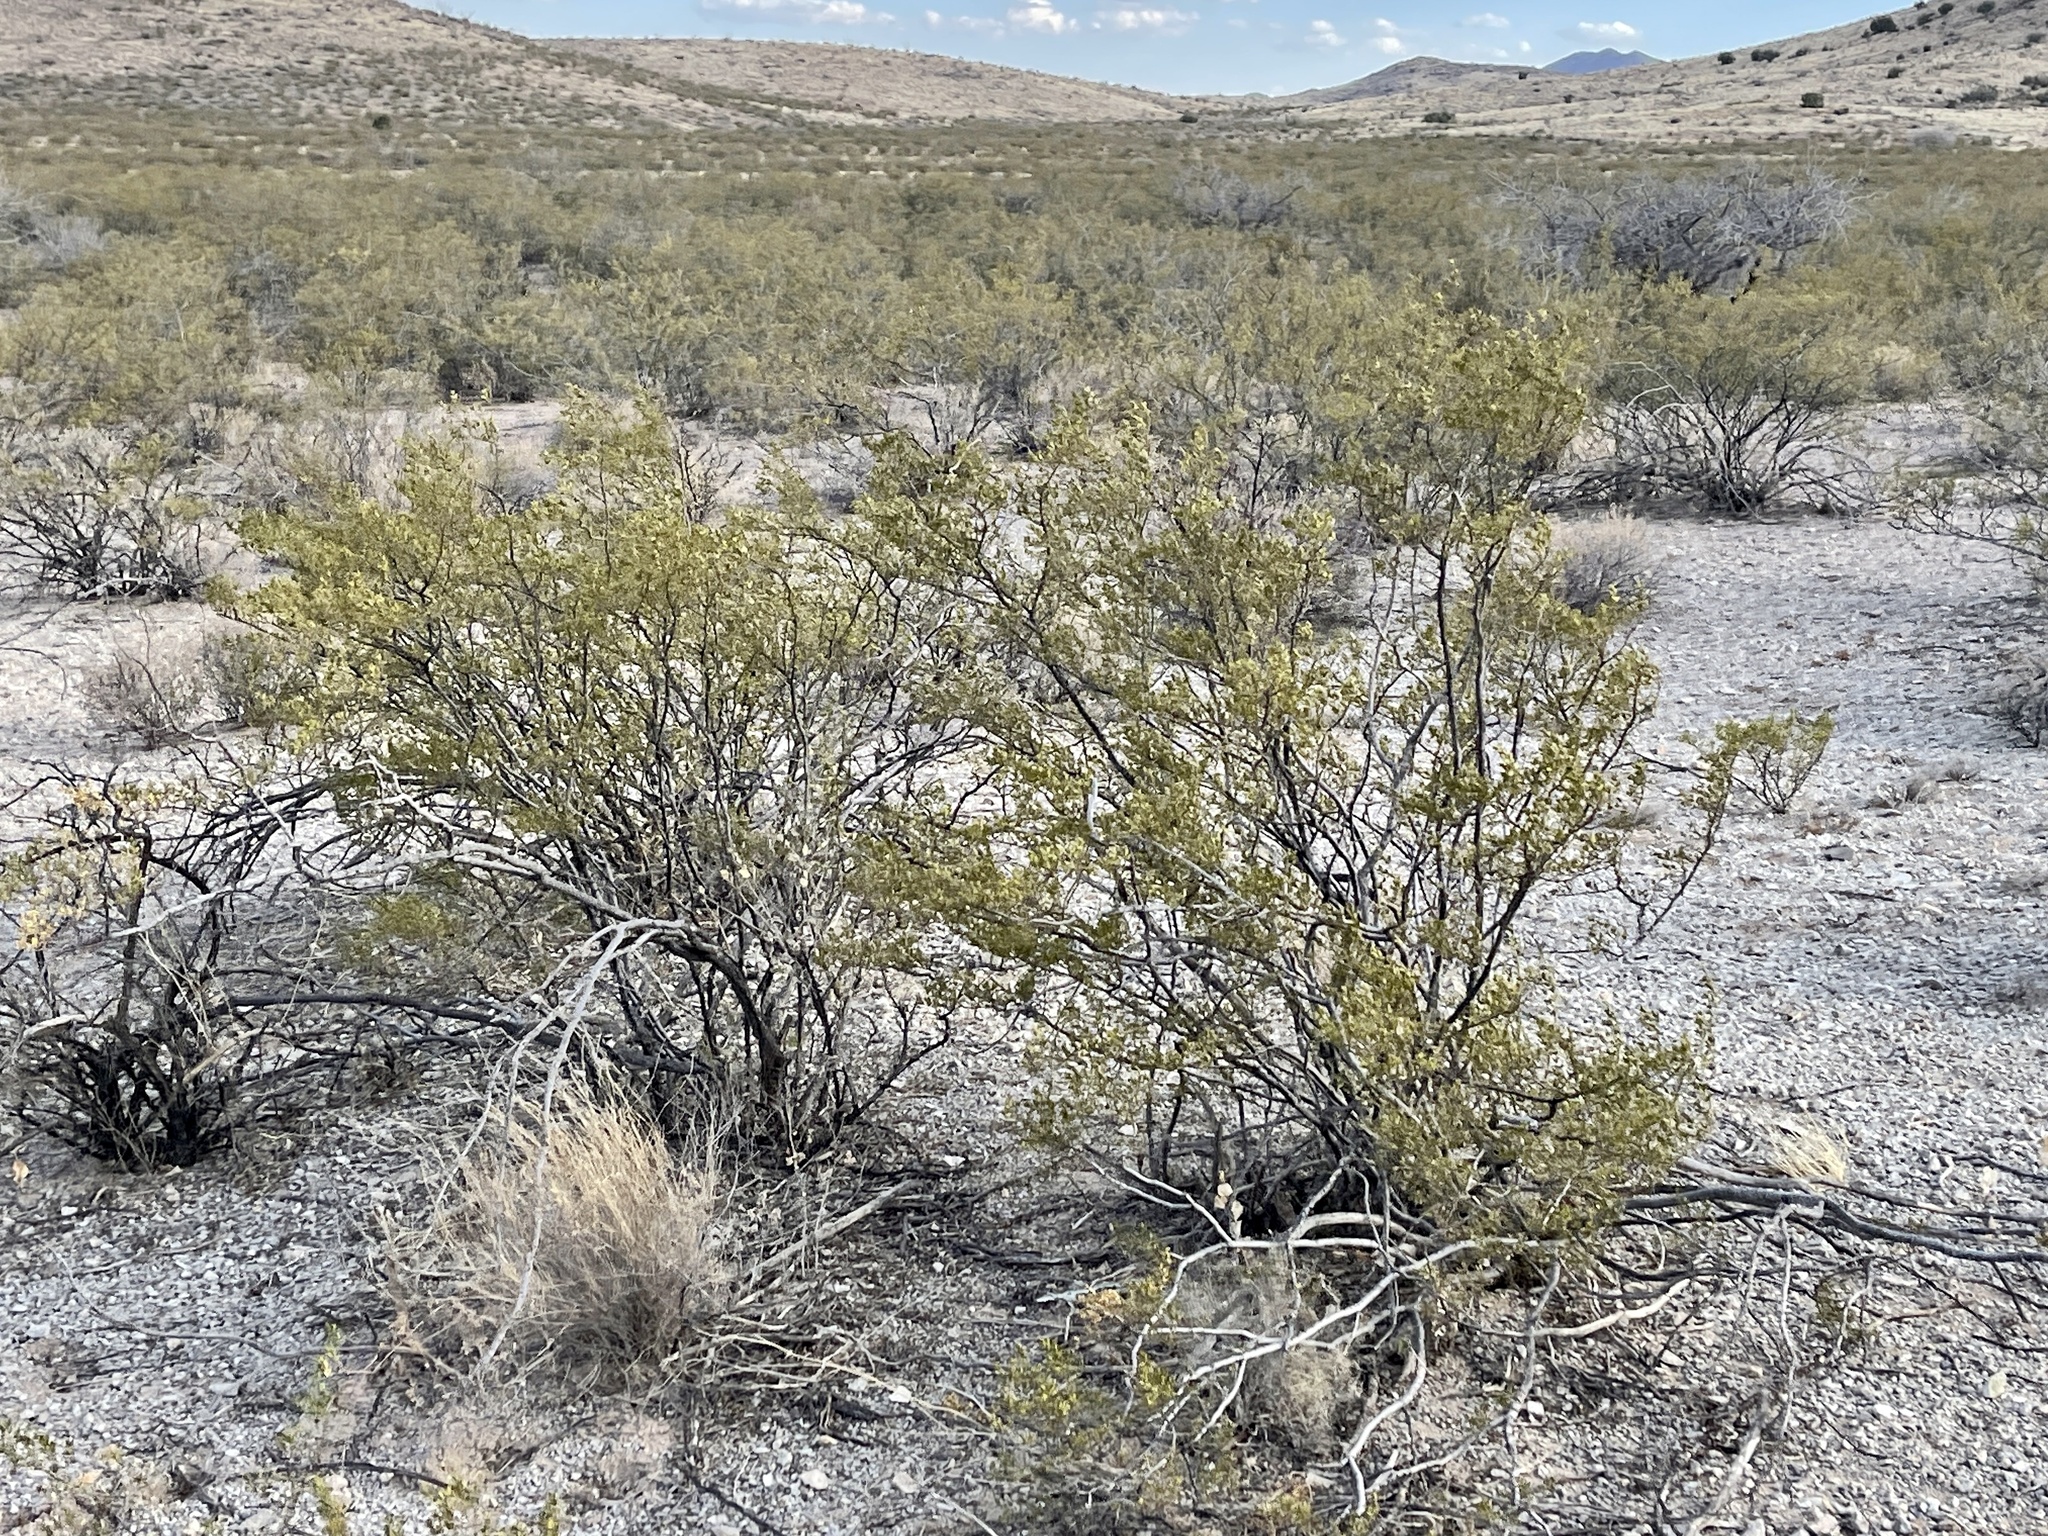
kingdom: Plantae
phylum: Tracheophyta
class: Magnoliopsida
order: Zygophyllales
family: Zygophyllaceae
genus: Larrea
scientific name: Larrea tridentata
